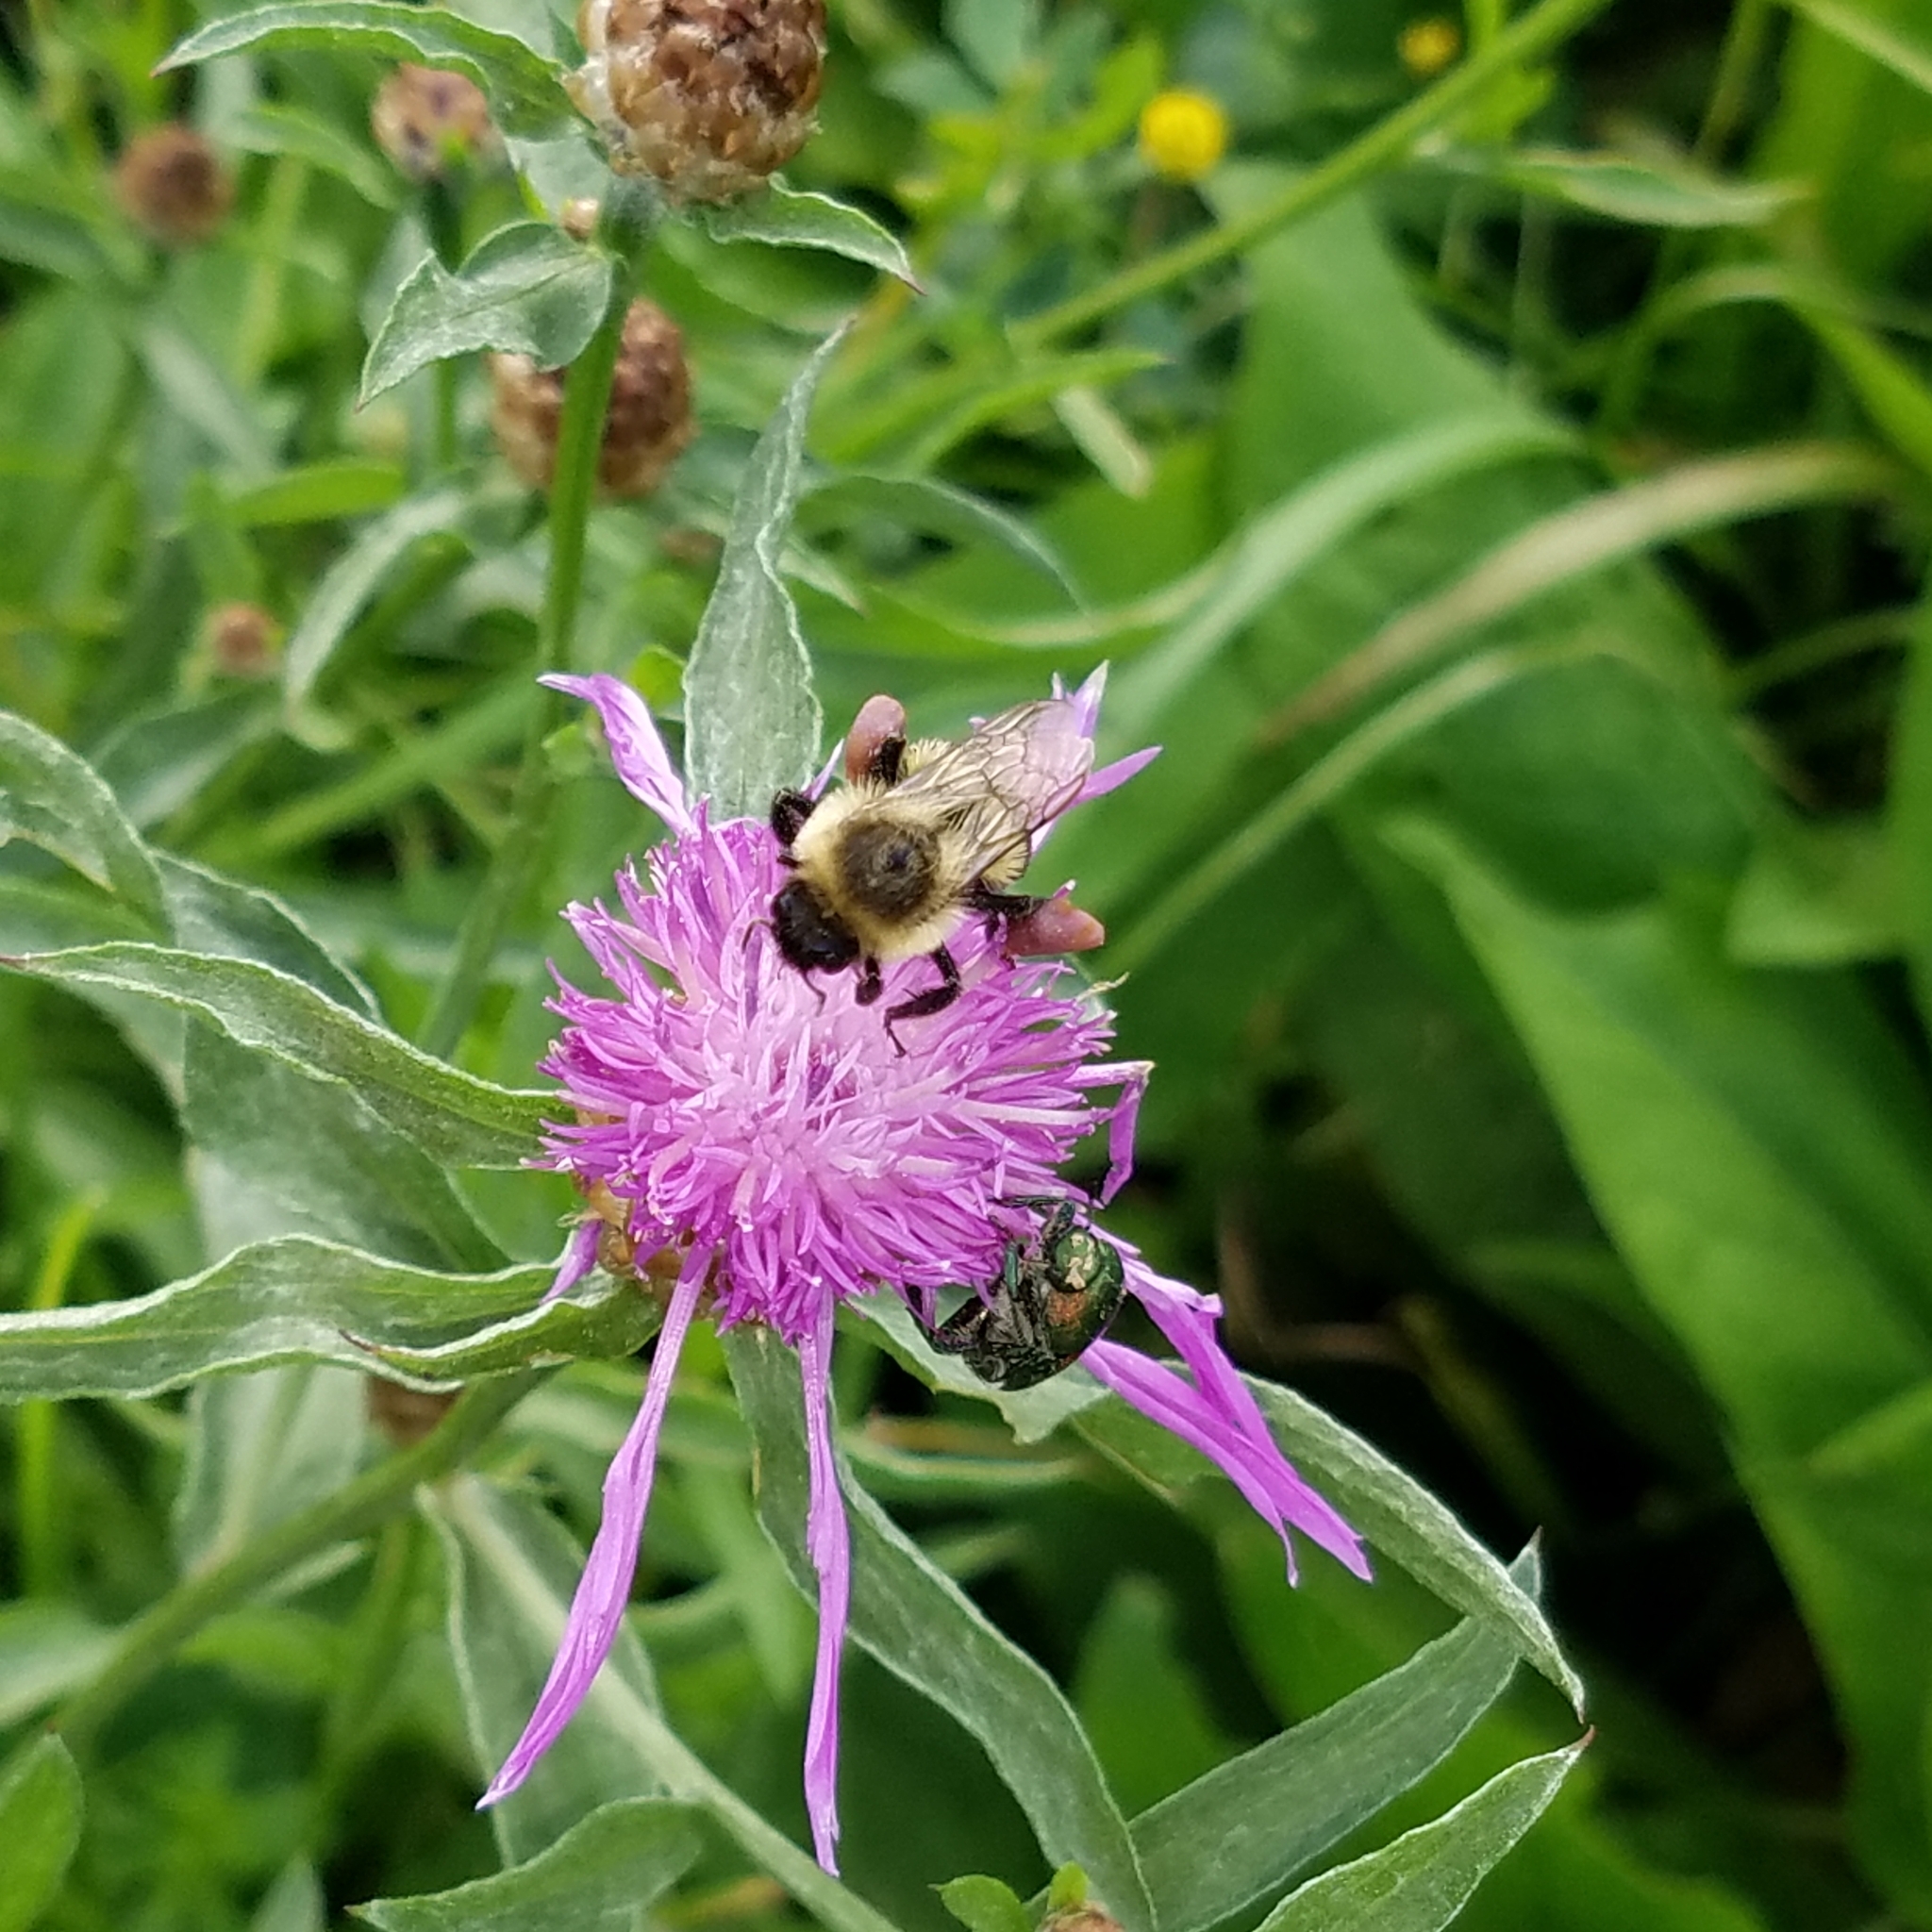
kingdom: Animalia
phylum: Arthropoda
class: Insecta
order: Hymenoptera
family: Apidae
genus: Bombus
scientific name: Bombus impatiens
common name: Common eastern bumble bee
